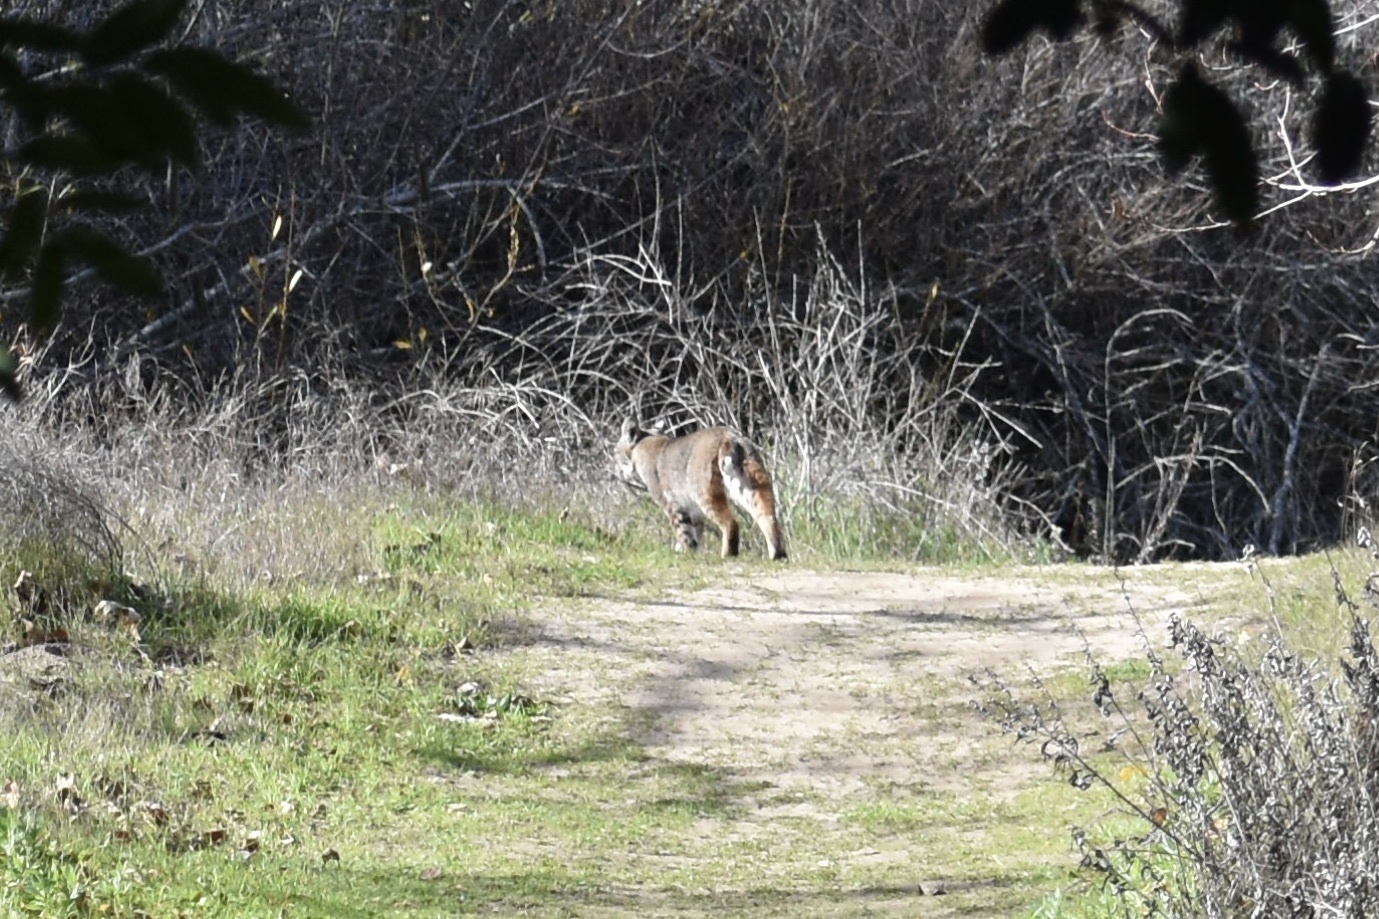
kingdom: Animalia
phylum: Chordata
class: Mammalia
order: Carnivora
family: Felidae
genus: Lynx
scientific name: Lynx rufus
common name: Bobcat
